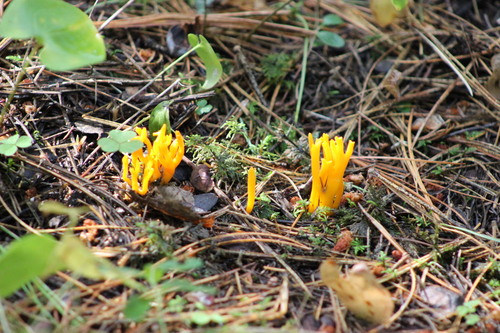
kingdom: Fungi
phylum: Basidiomycota
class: Dacrymycetes
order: Dacrymycetales
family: Dacrymycetaceae
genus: Calocera
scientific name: Calocera viscosa
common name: Yellow stagshorn
